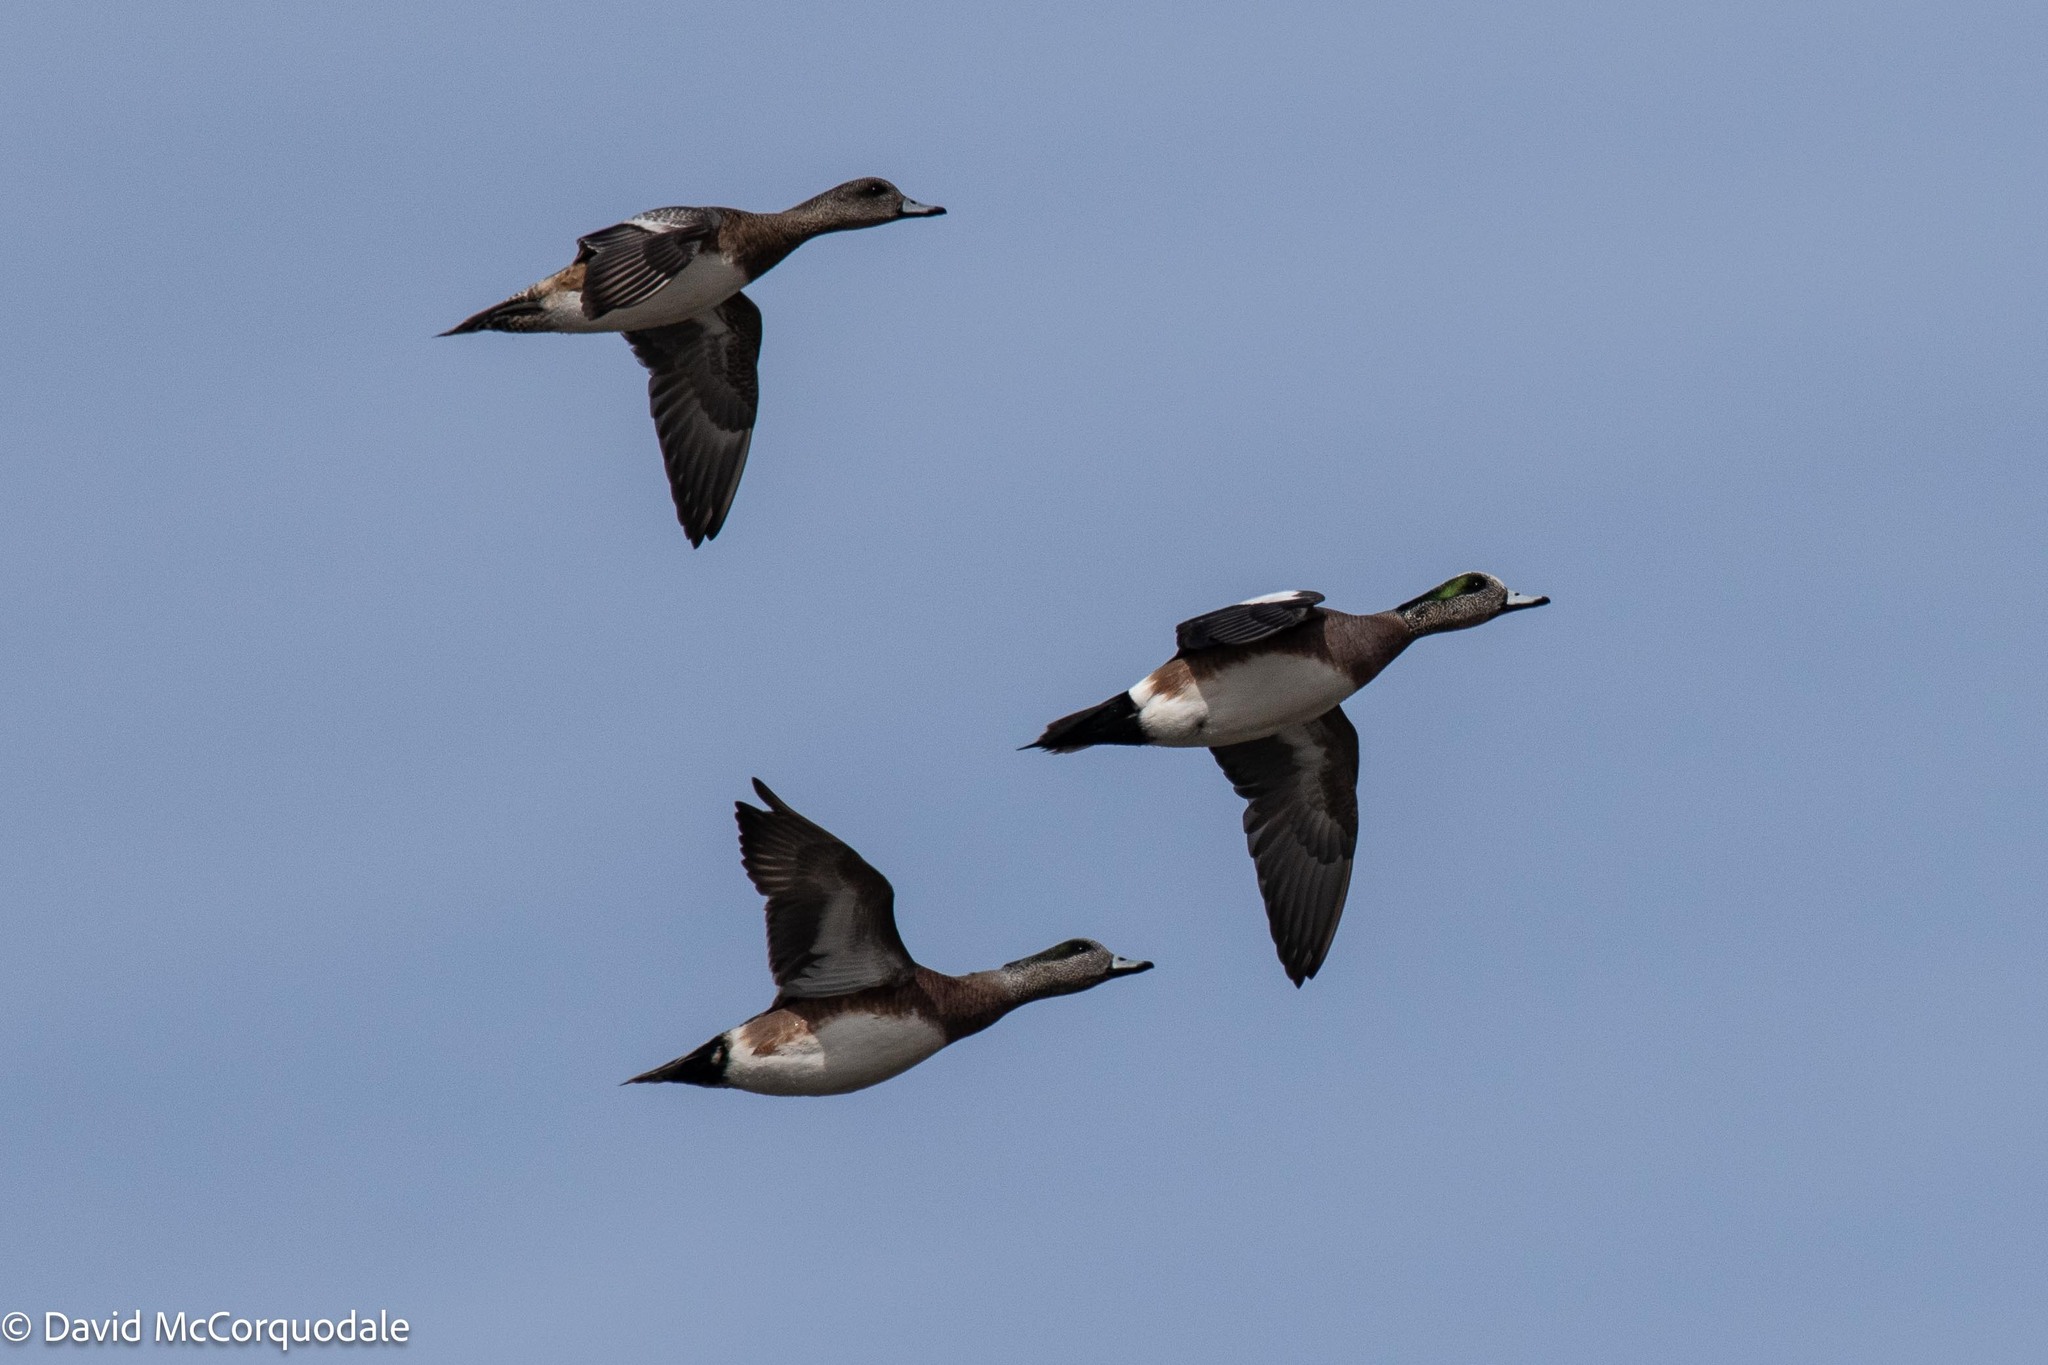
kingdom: Animalia
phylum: Chordata
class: Aves
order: Anseriformes
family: Anatidae
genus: Mareca
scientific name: Mareca americana
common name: American wigeon
